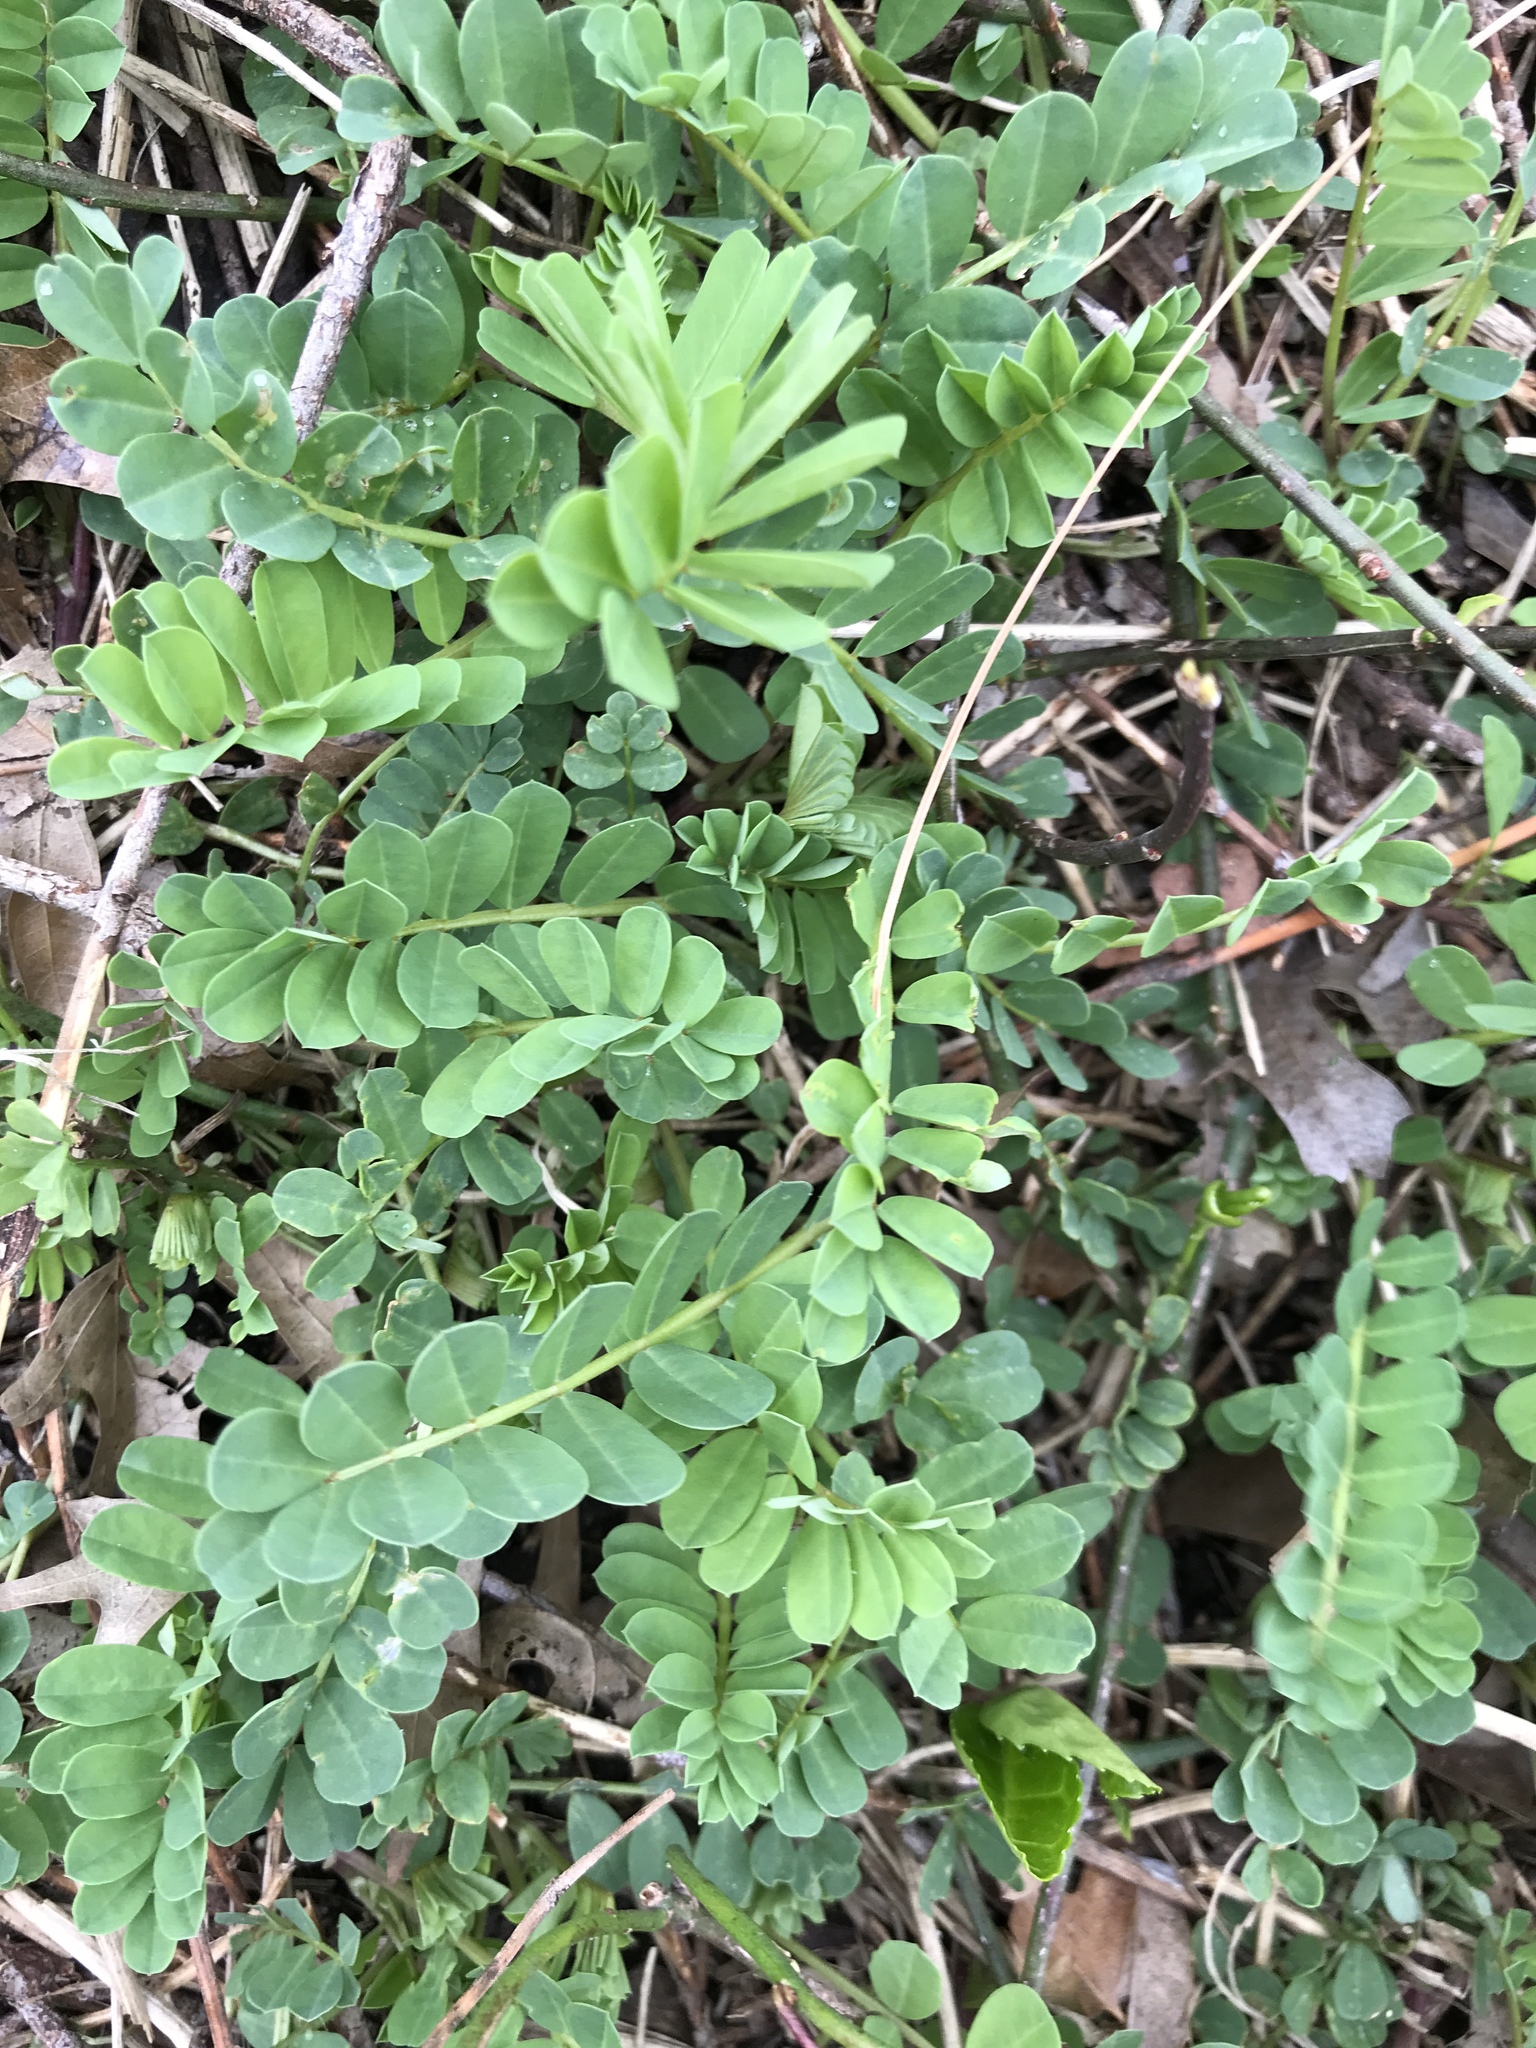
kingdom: Plantae
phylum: Tracheophyta
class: Magnoliopsida
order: Fabales
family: Fabaceae
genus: Coronilla
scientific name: Coronilla varia
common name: Crownvetch
